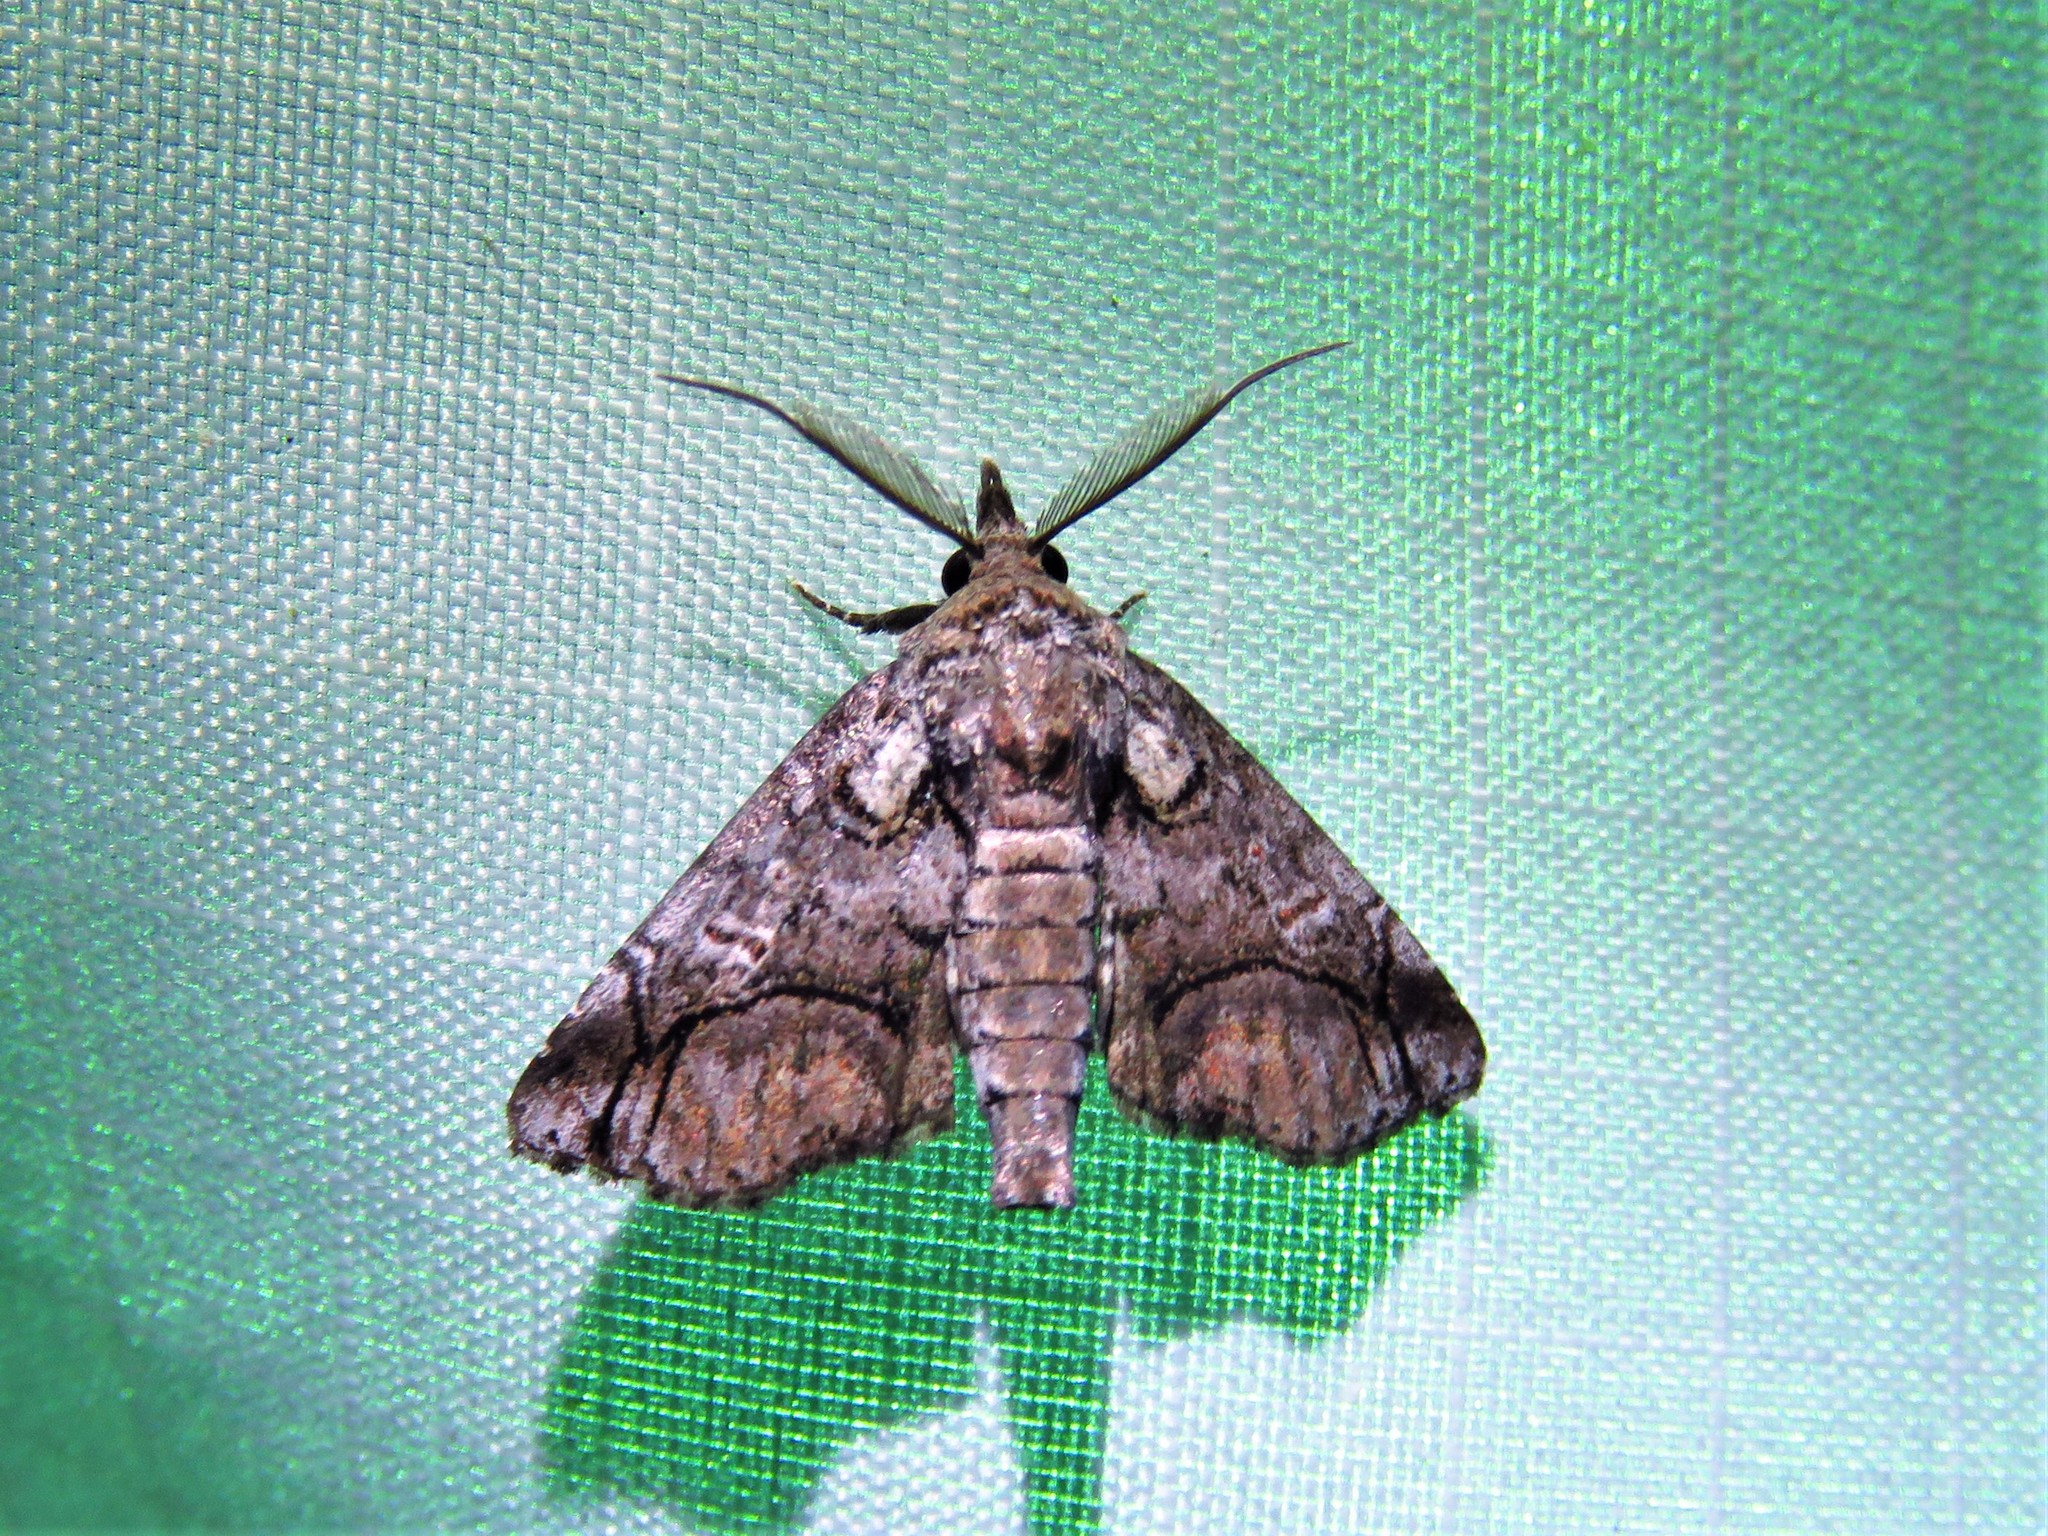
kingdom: Animalia
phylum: Arthropoda
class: Insecta
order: Lepidoptera
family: Euteliidae
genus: Paectes
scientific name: Paectes abrostolella
